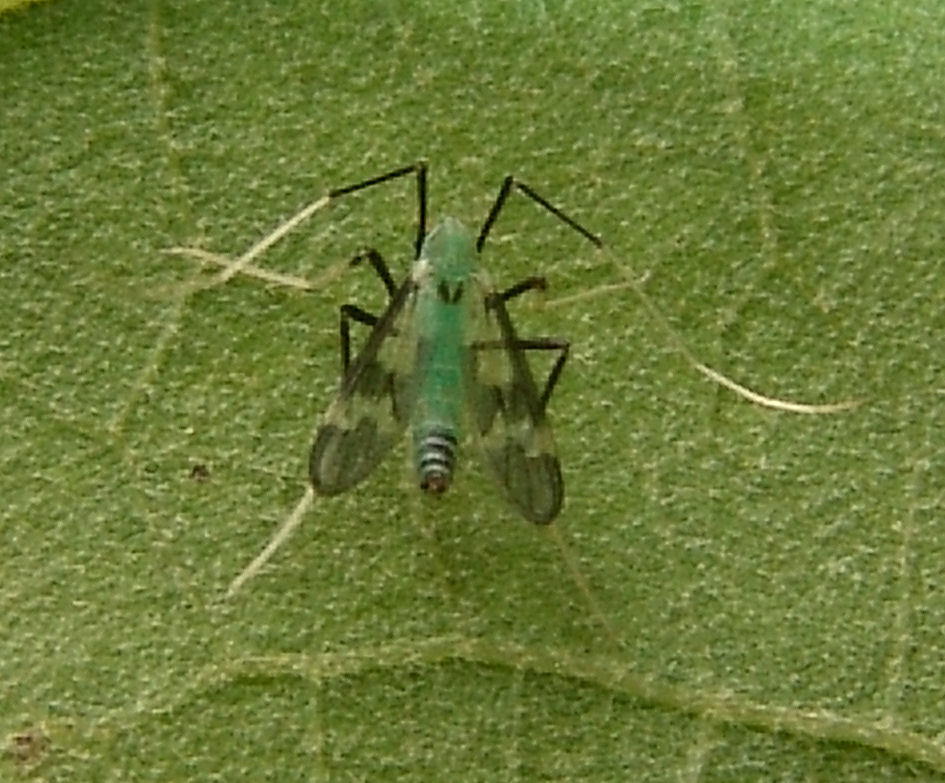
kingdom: Animalia
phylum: Arthropoda
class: Insecta
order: Diptera
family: Chironomidae
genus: Stenochironomus
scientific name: Stenochironomus hilaris
